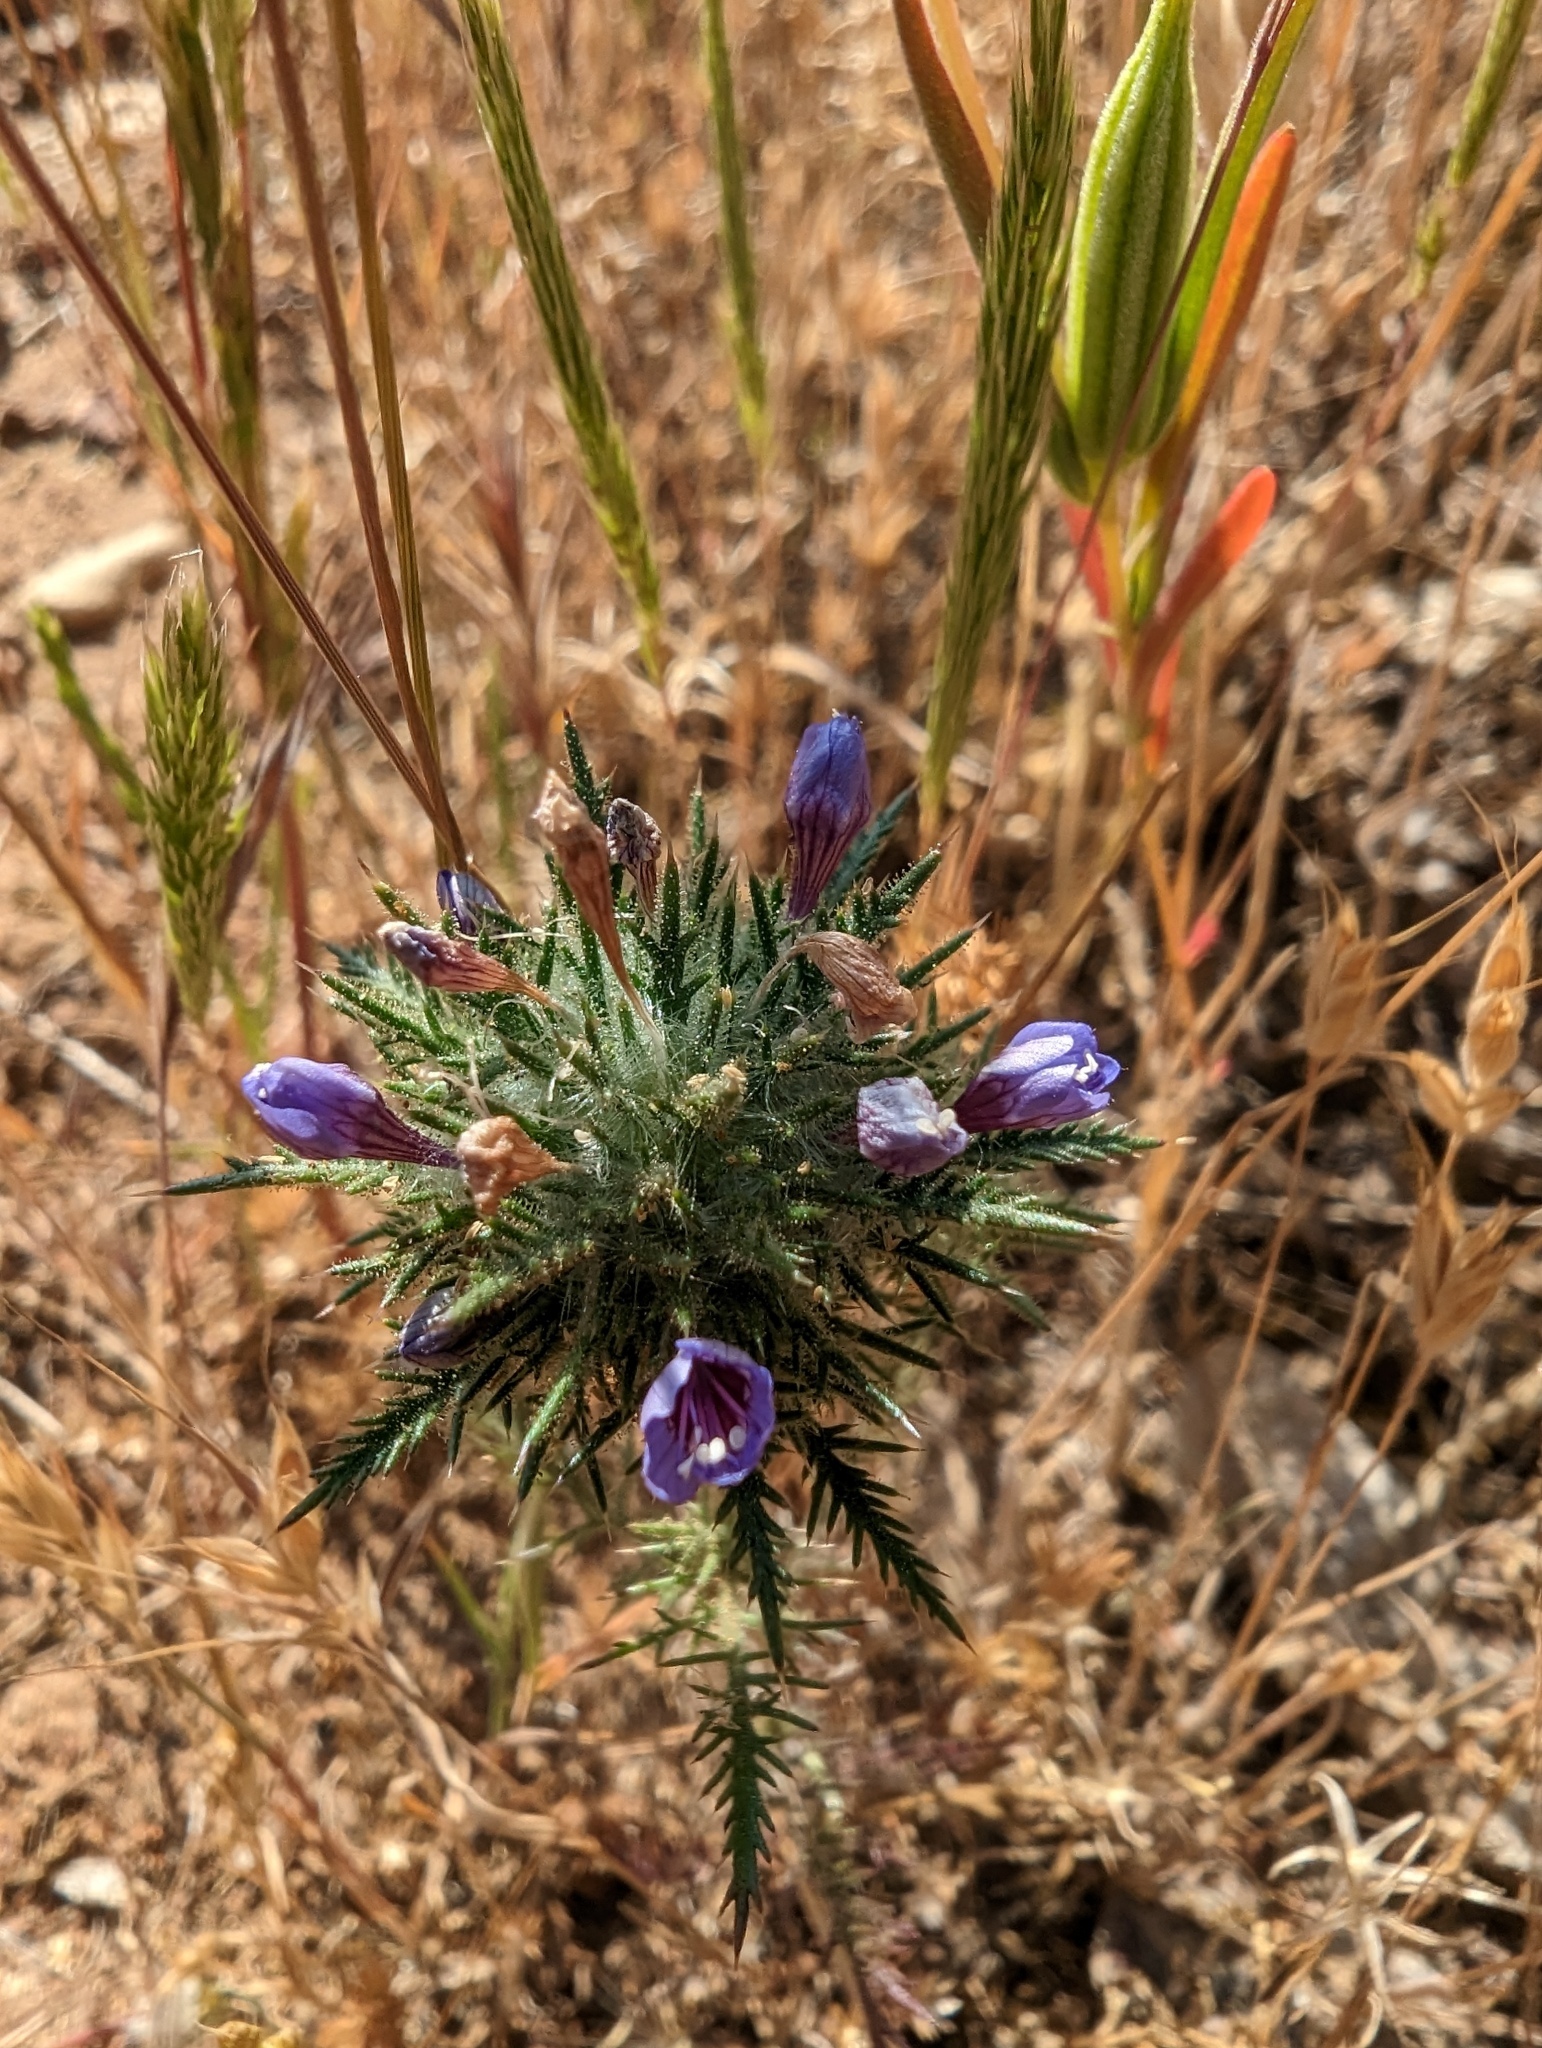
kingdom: Plantae
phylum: Tracheophyta
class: Magnoliopsida
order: Ericales
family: Polemoniaceae
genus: Navarretia
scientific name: Navarretia pubescens
